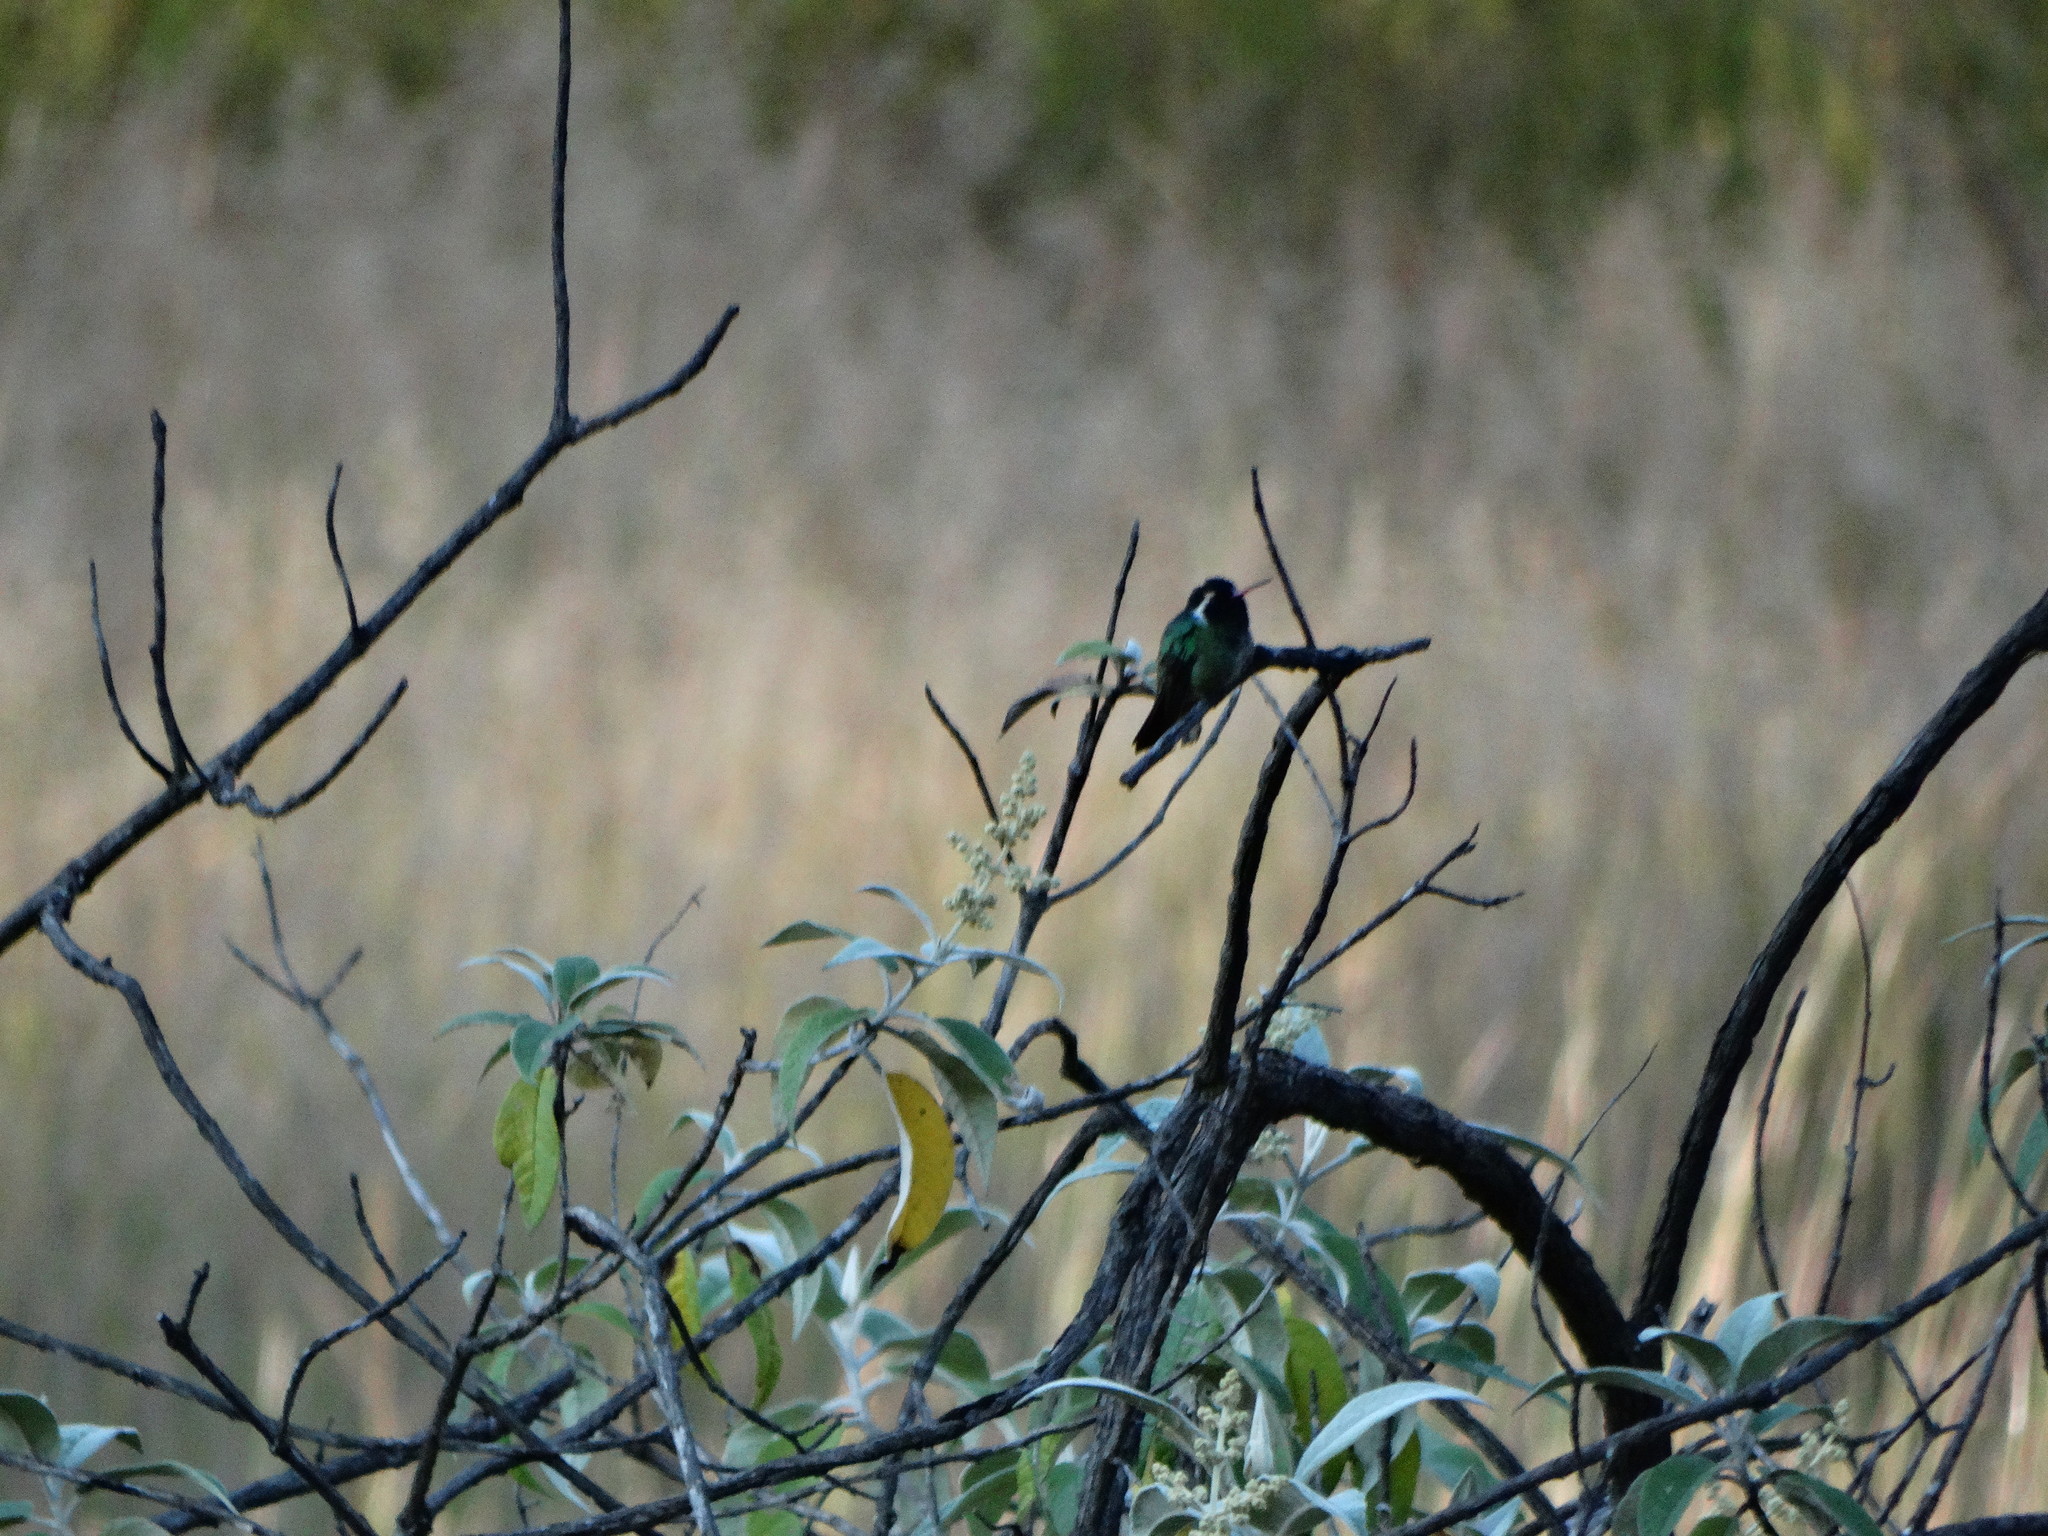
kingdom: Animalia
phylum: Chordata
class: Aves
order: Apodiformes
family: Trochilidae
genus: Basilinna
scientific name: Basilinna leucotis
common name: White-eared hummingbird
